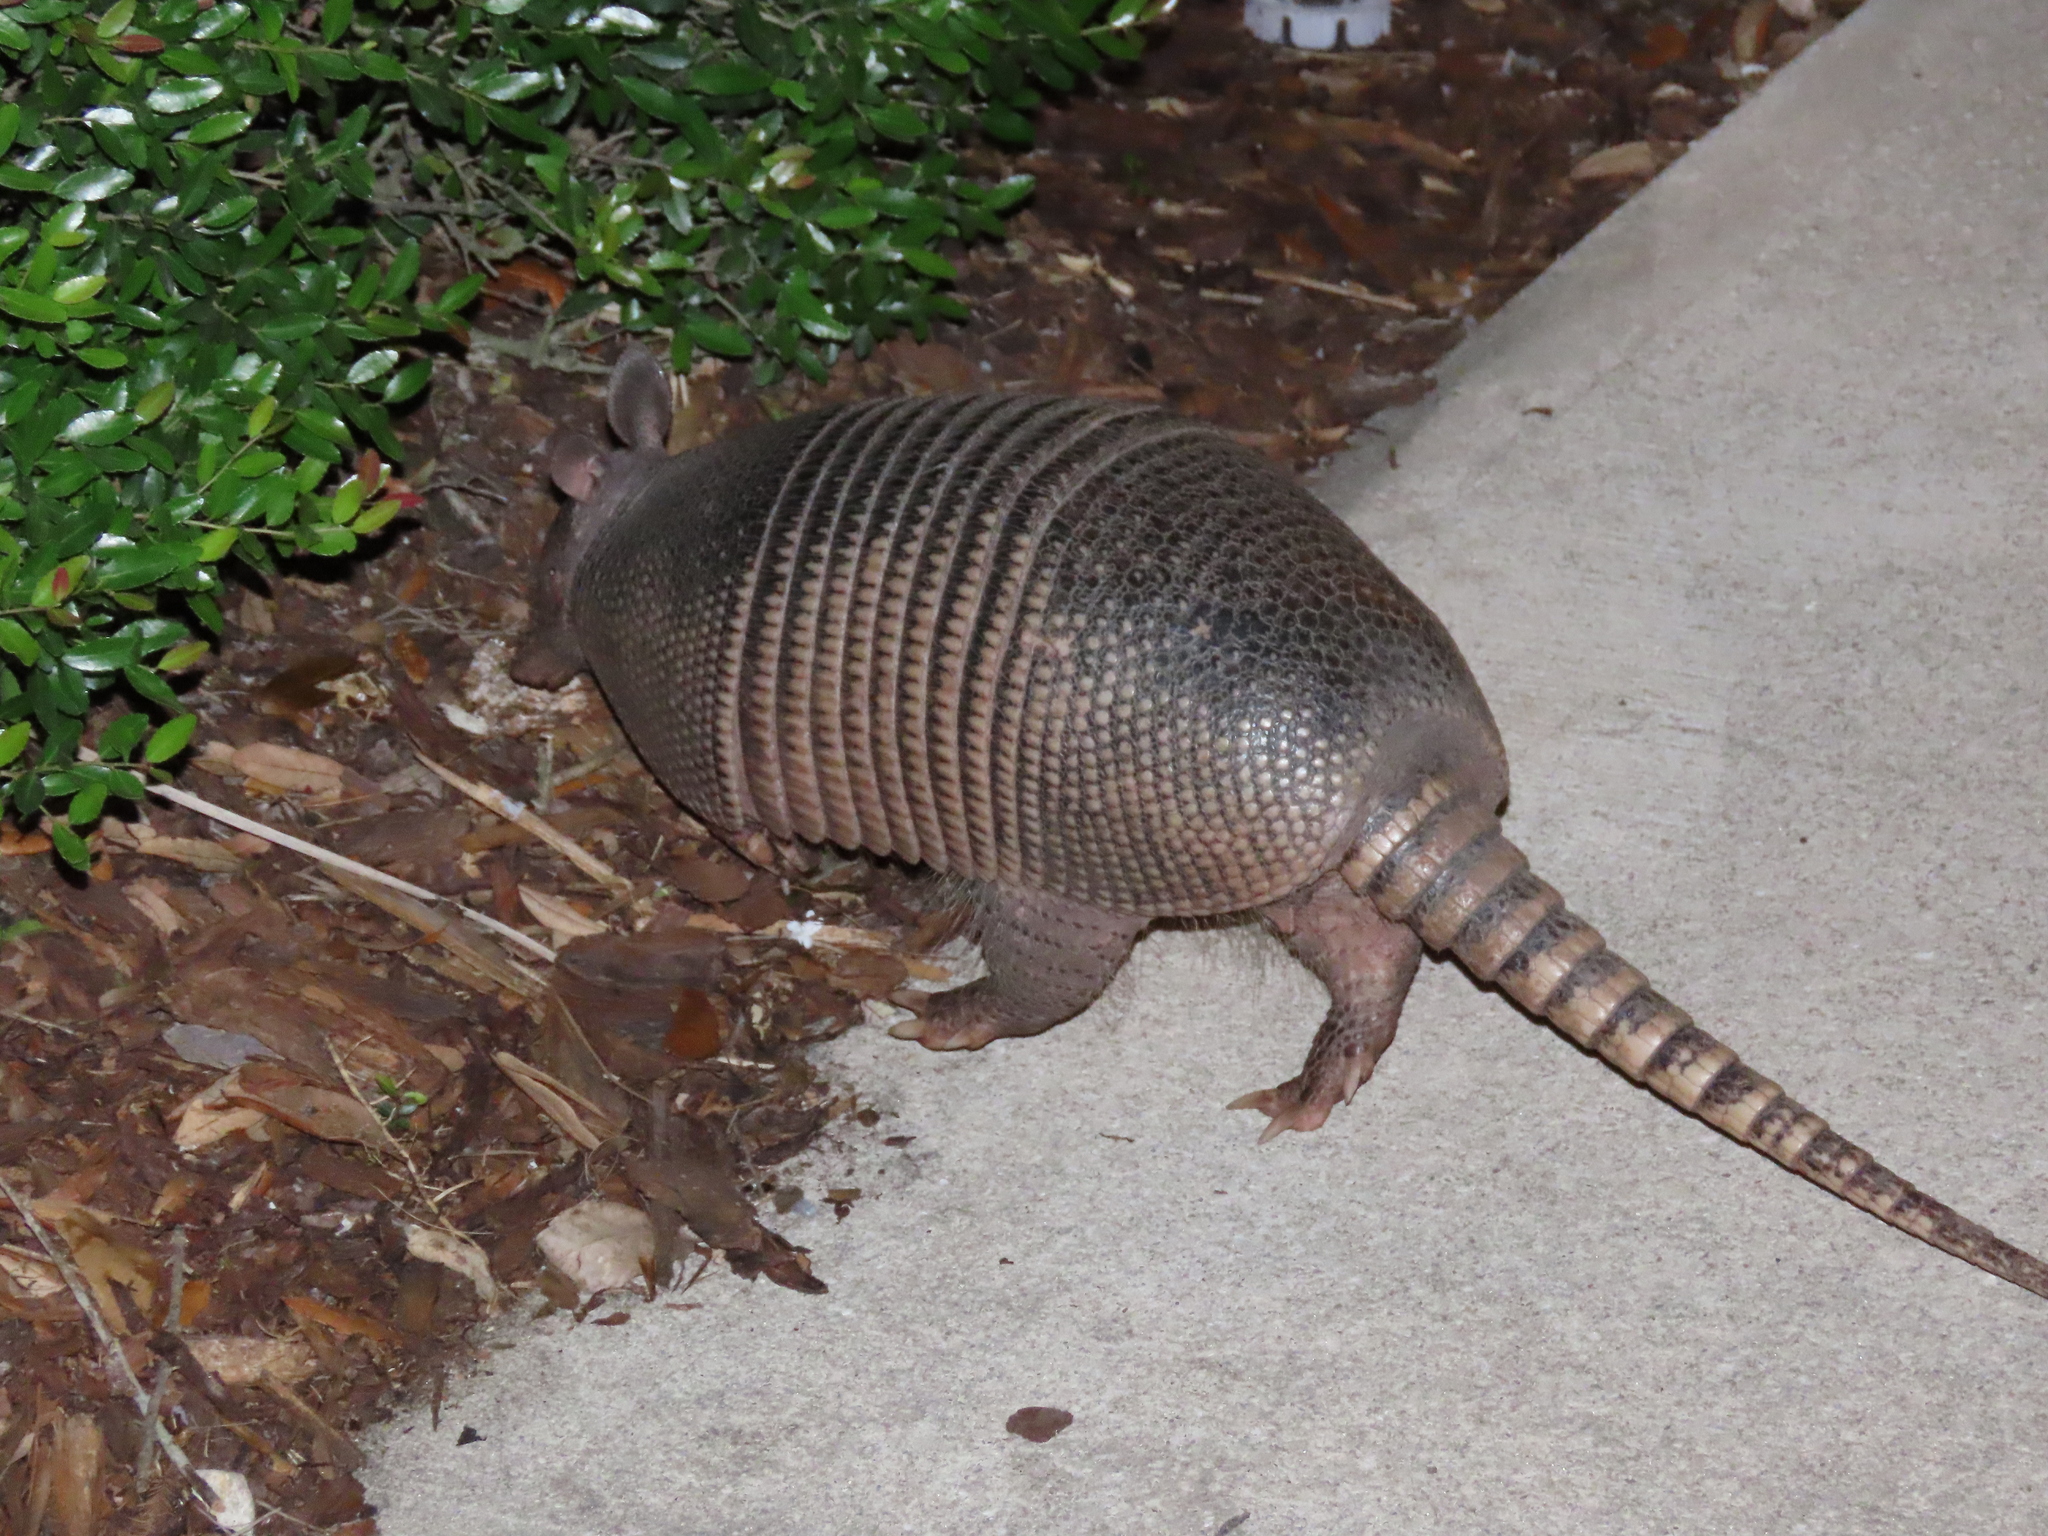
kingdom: Animalia
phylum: Chordata
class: Mammalia
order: Cingulata
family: Dasypodidae
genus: Dasypus
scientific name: Dasypus novemcinctus
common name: Nine-banded armadillo
